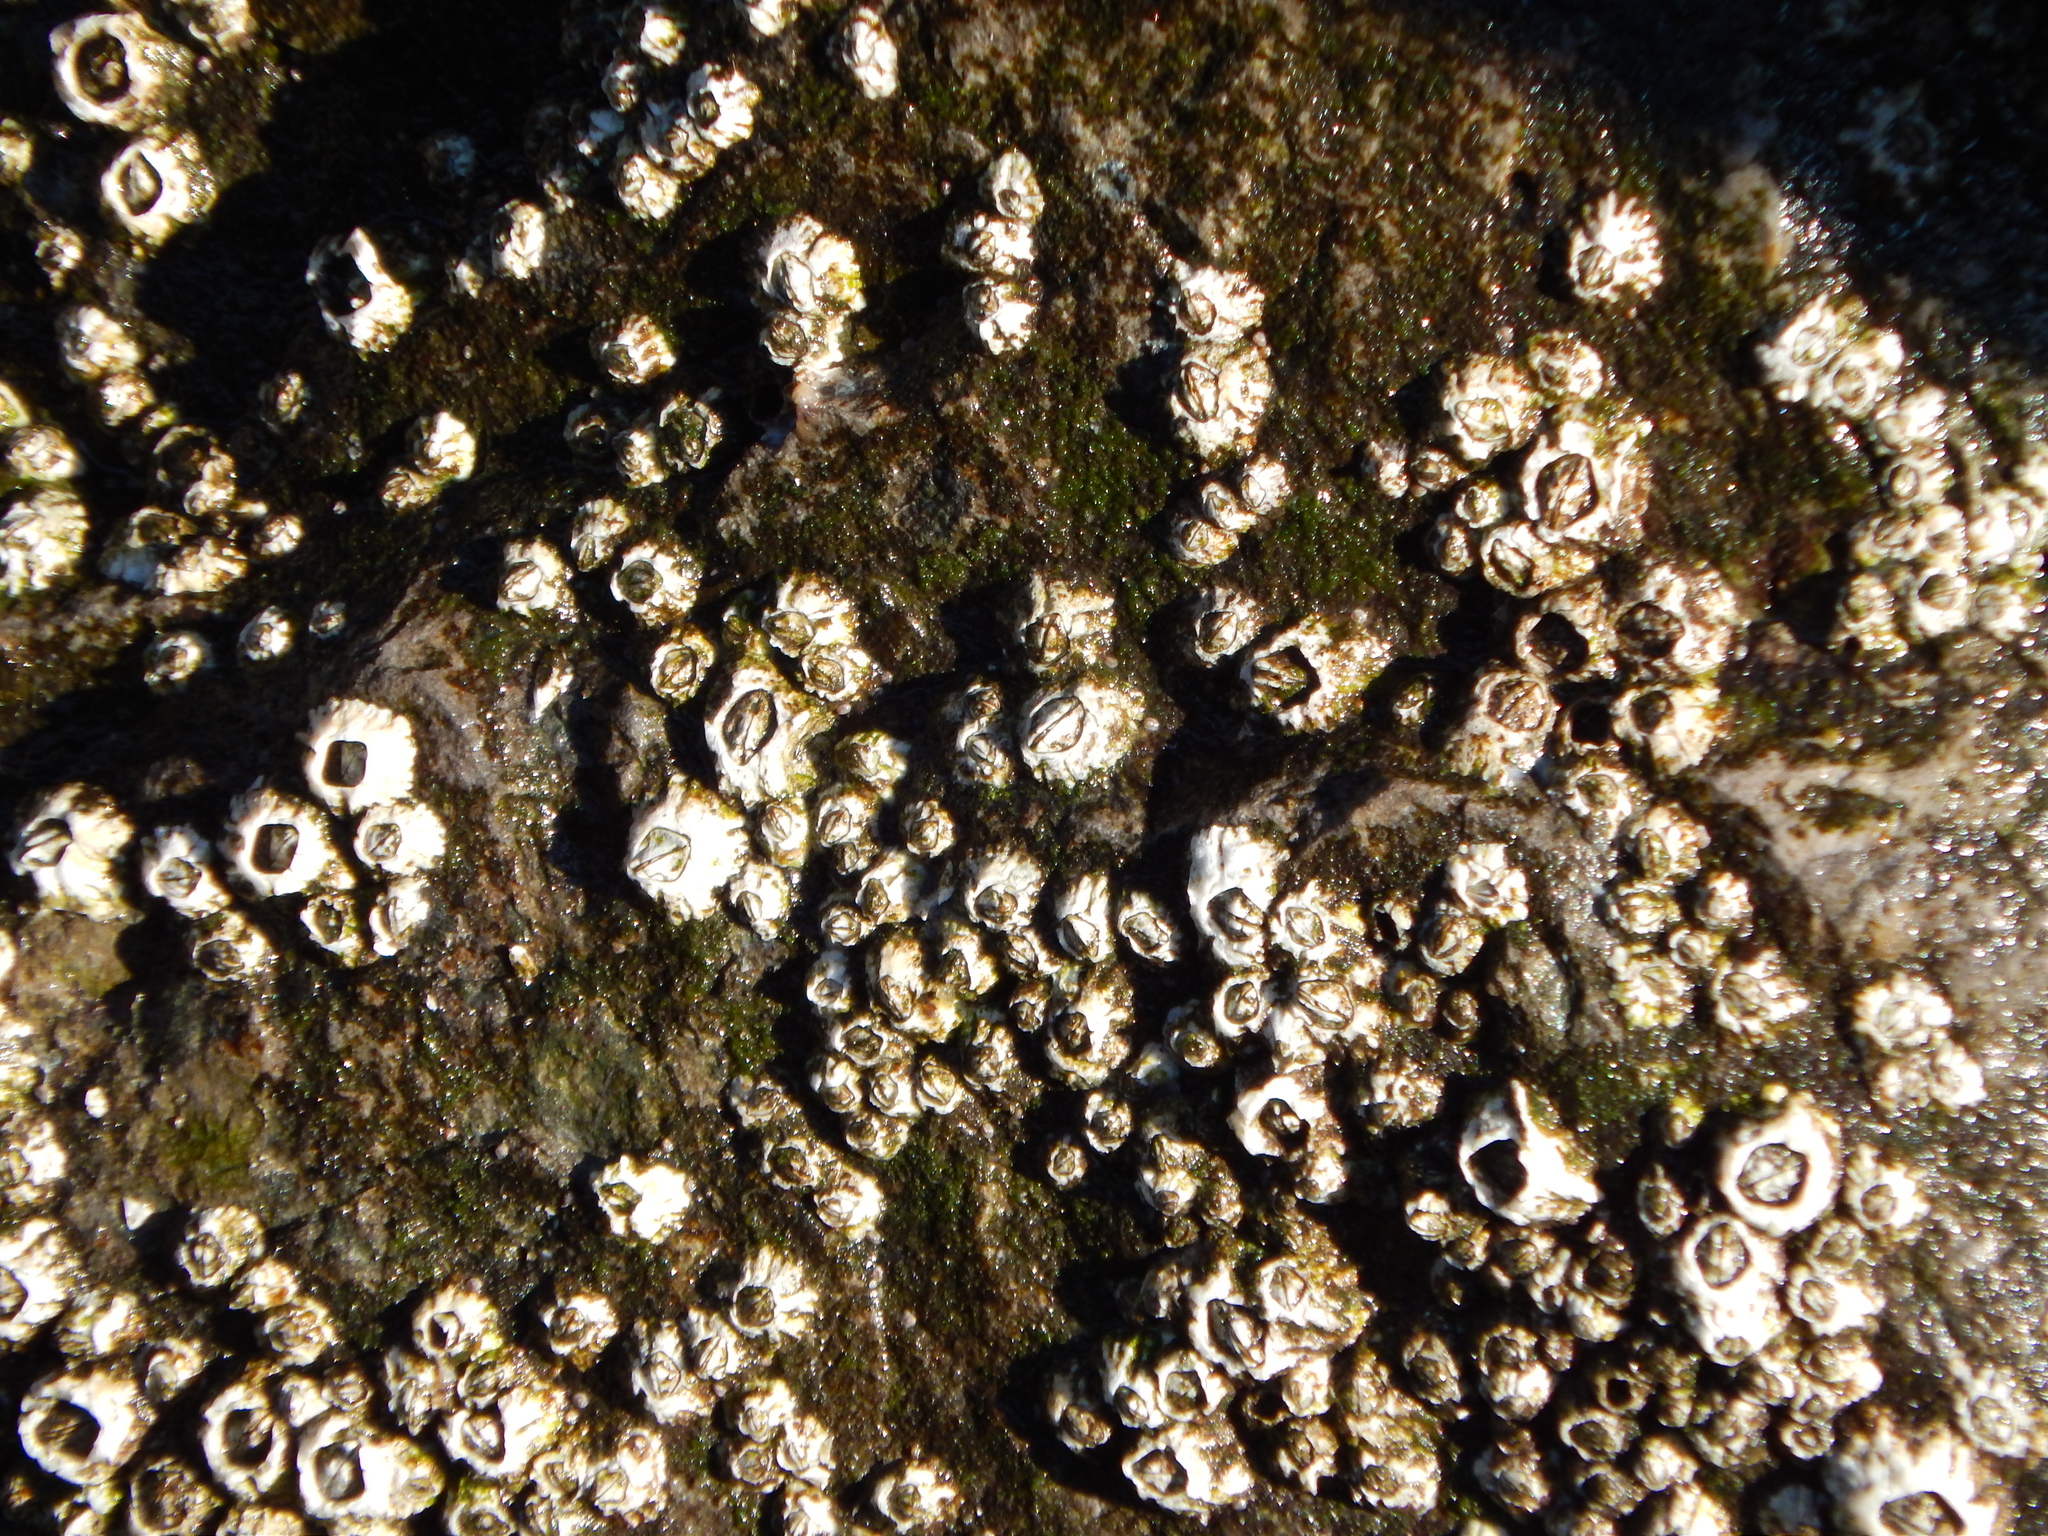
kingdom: Animalia
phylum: Arthropoda
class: Maxillopoda
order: Sessilia
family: Archaeobalanidae
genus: Semibalanus
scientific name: Semibalanus balanoides
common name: Acorn barnacle
